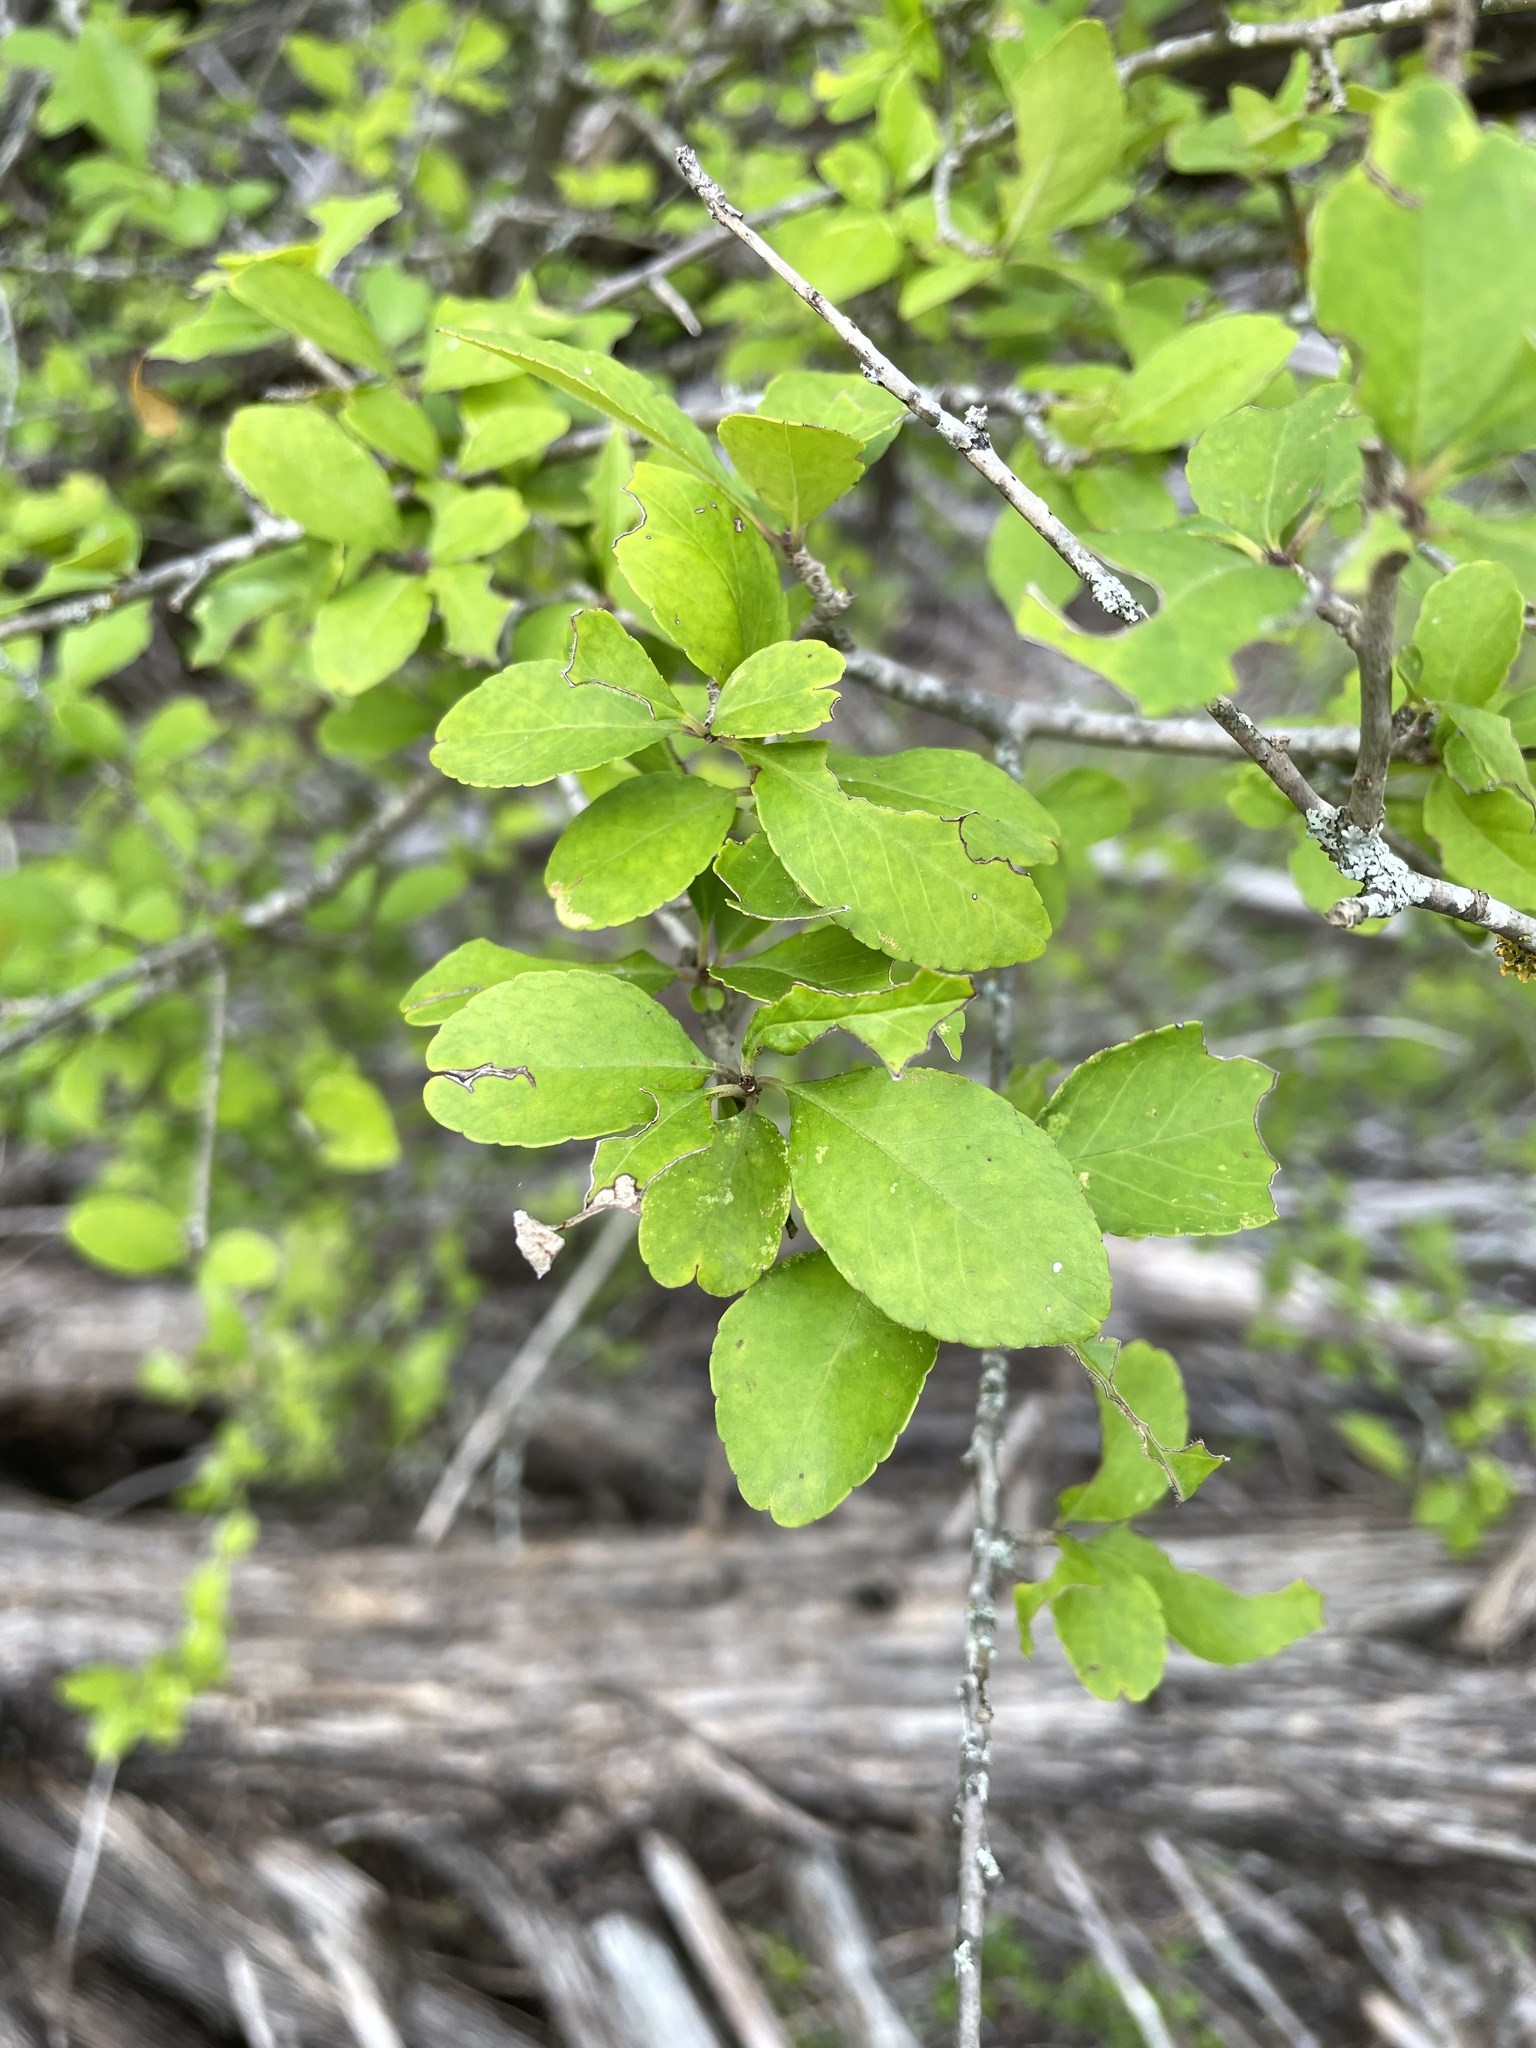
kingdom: Plantae
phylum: Tracheophyta
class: Magnoliopsida
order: Aquifoliales
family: Aquifoliaceae
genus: Ilex
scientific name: Ilex decidua
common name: Possum-haw
